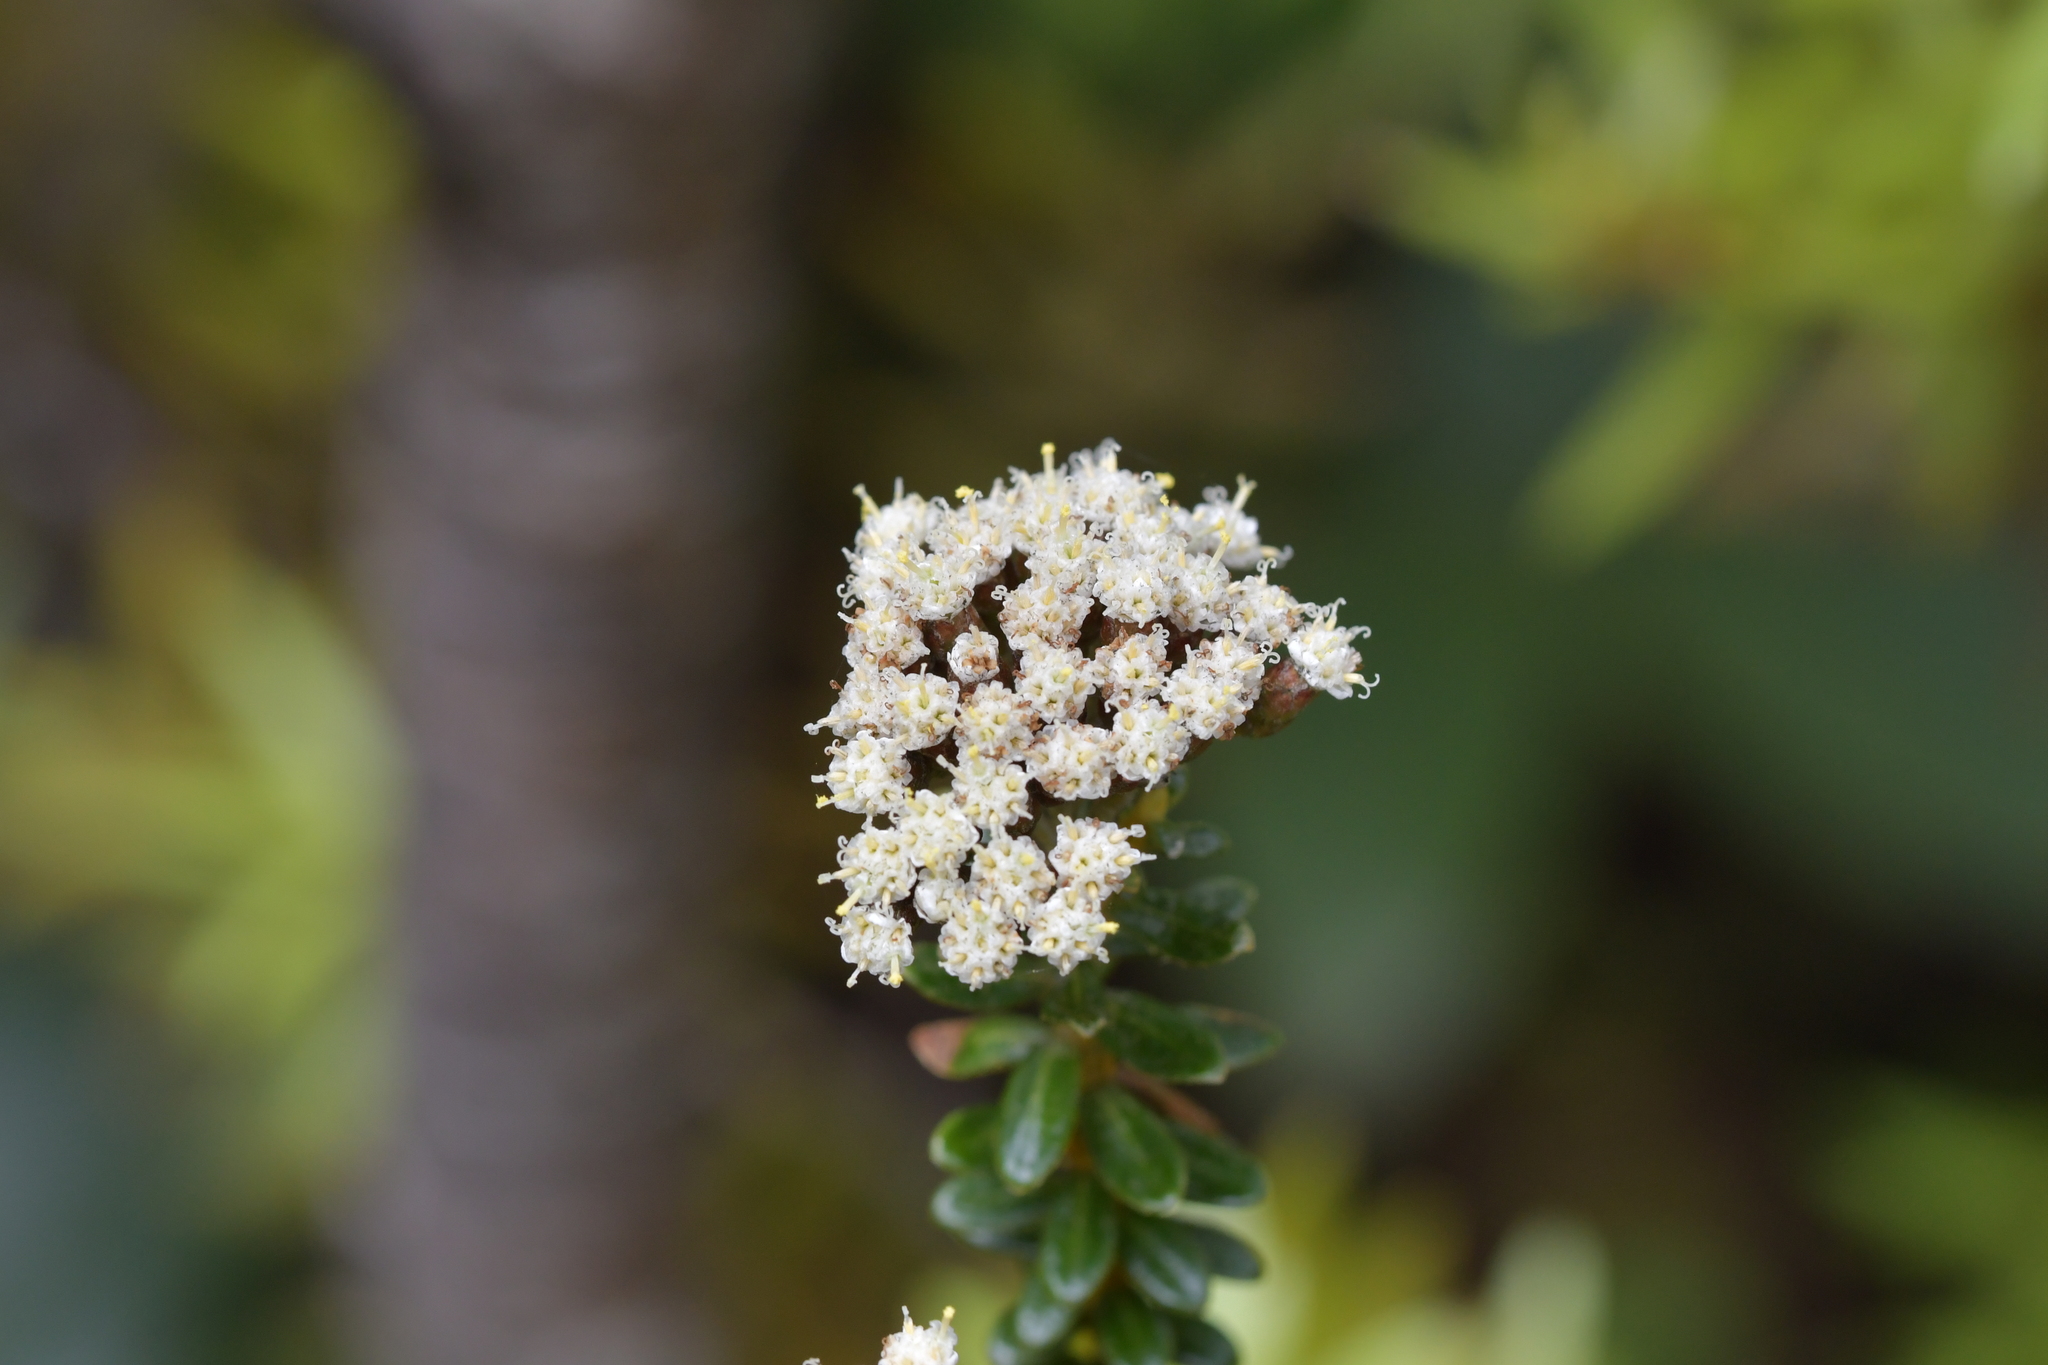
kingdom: Plantae
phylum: Tracheophyta
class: Magnoliopsida
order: Asterales
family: Asteraceae
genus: Ozothamnus
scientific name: Ozothamnus leptophyllus
